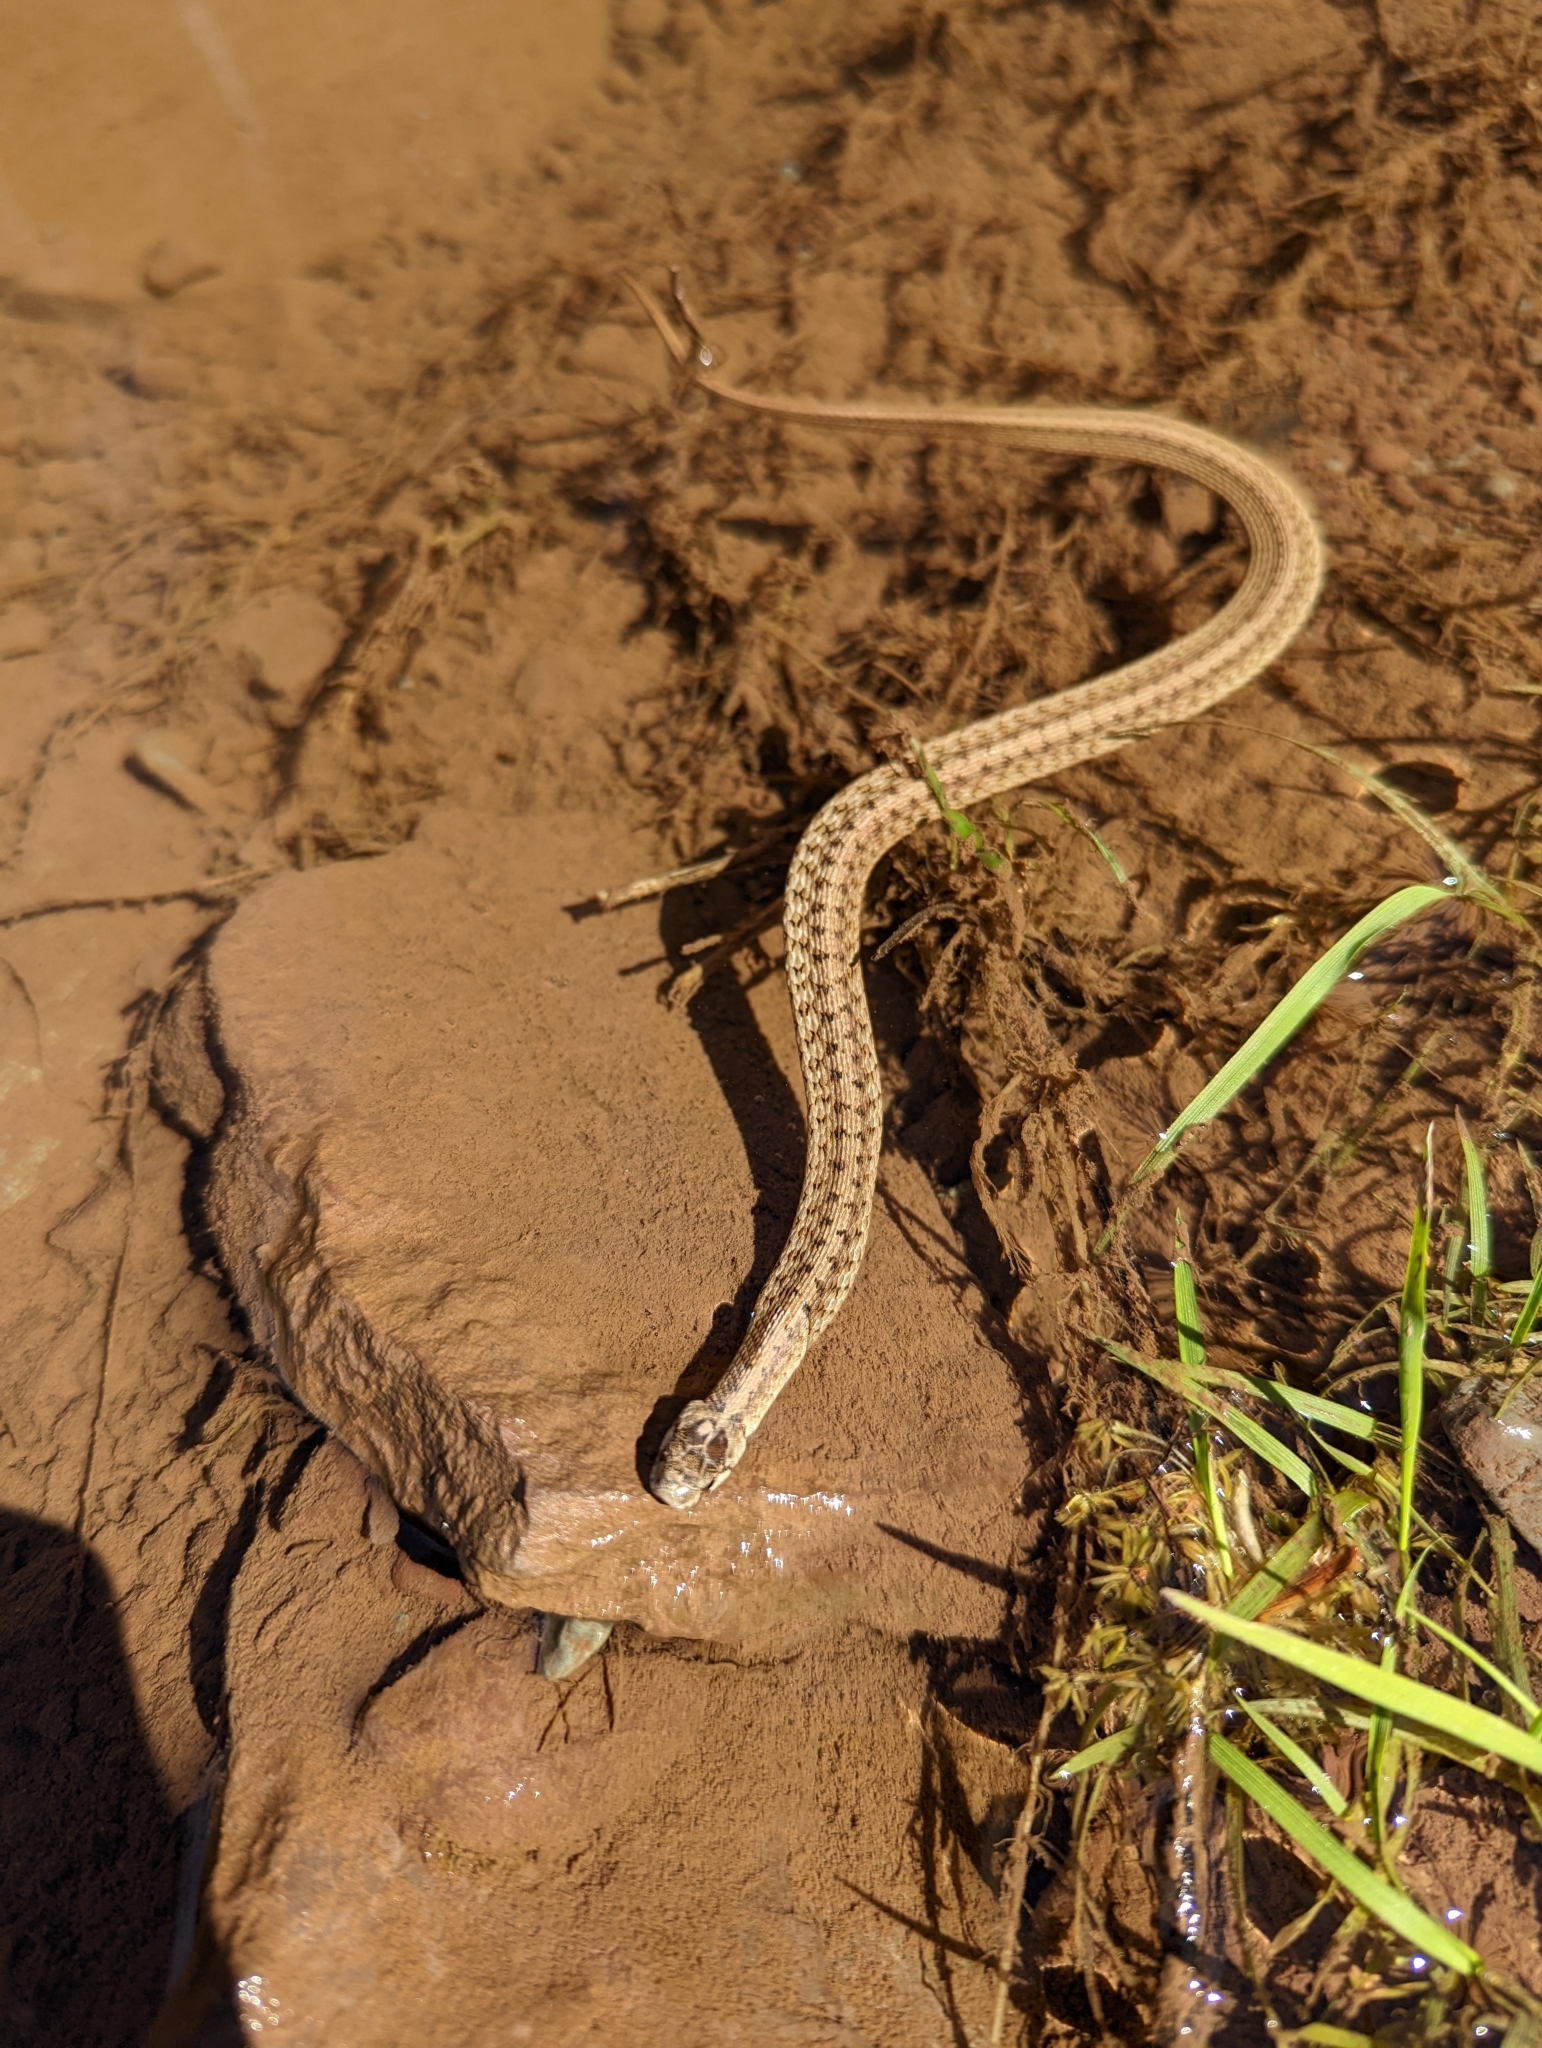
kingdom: Animalia
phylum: Chordata
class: Squamata
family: Colubridae
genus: Storeria
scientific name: Storeria dekayi
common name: (dekay’s) brown snake
